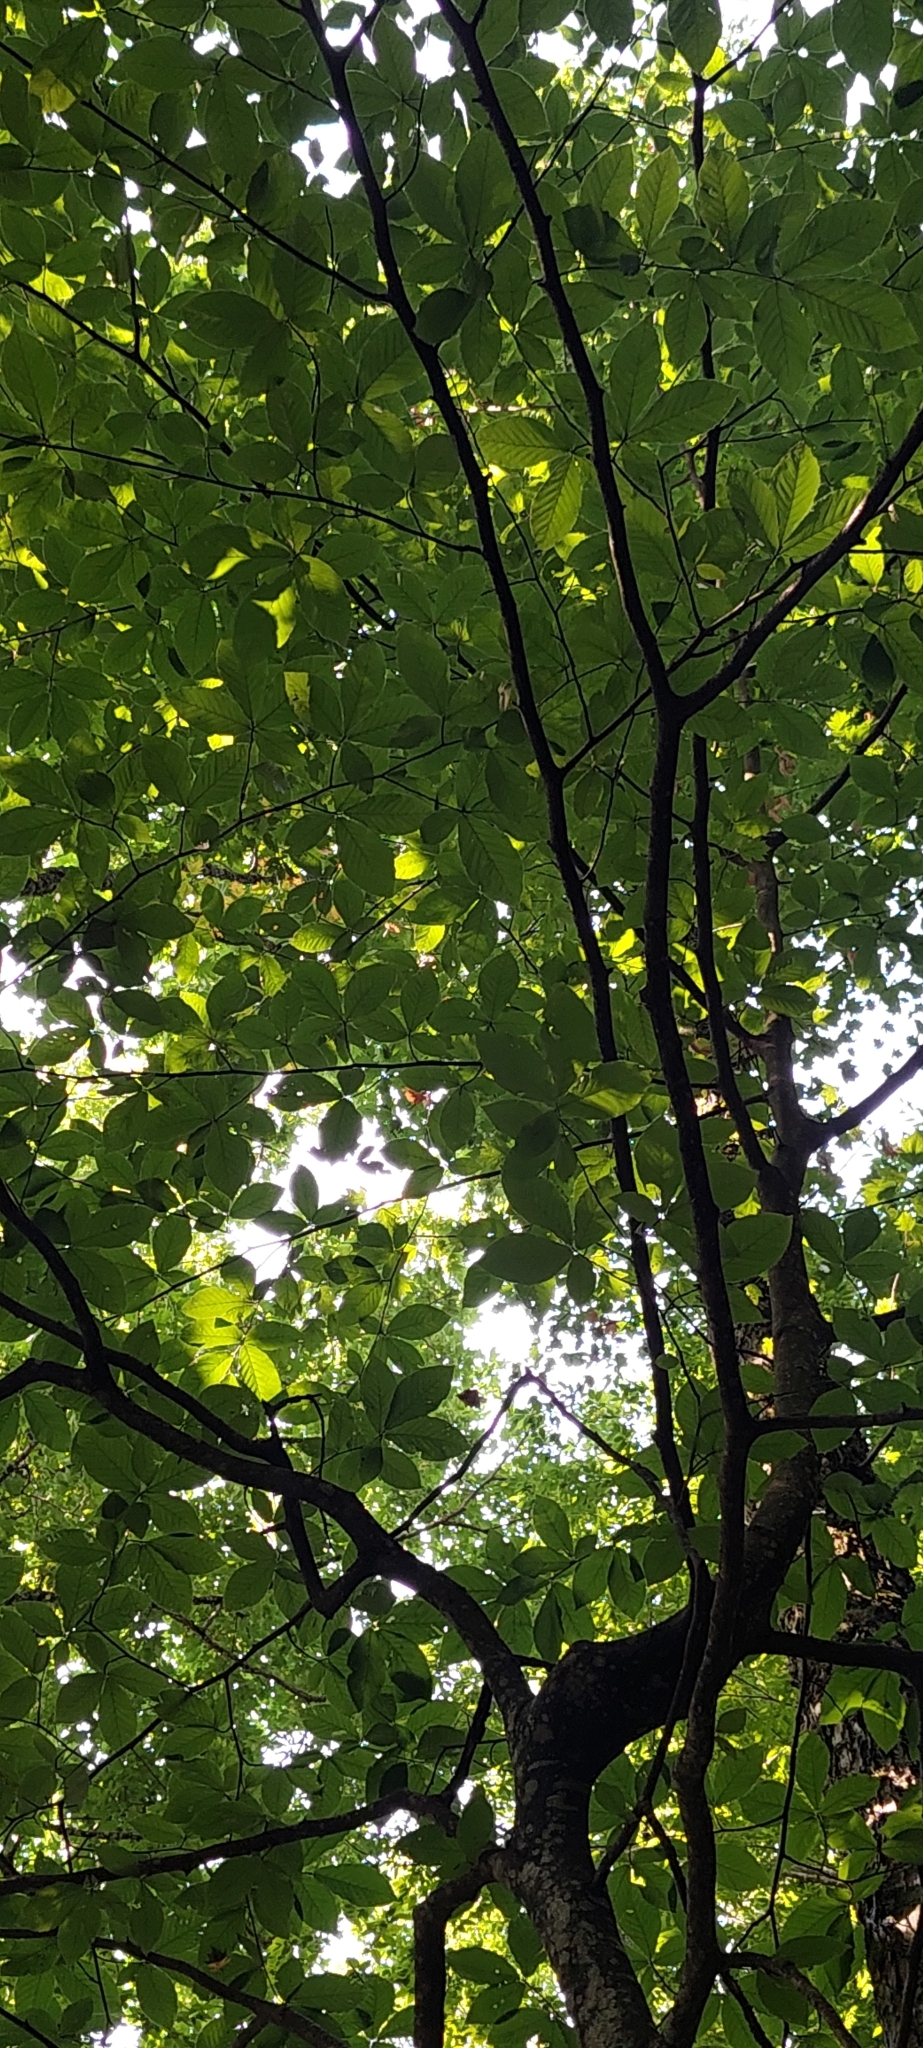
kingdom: Plantae
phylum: Tracheophyta
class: Magnoliopsida
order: Fagales
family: Betulaceae
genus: Carpinus
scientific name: Carpinus betulus
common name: Hornbeam
